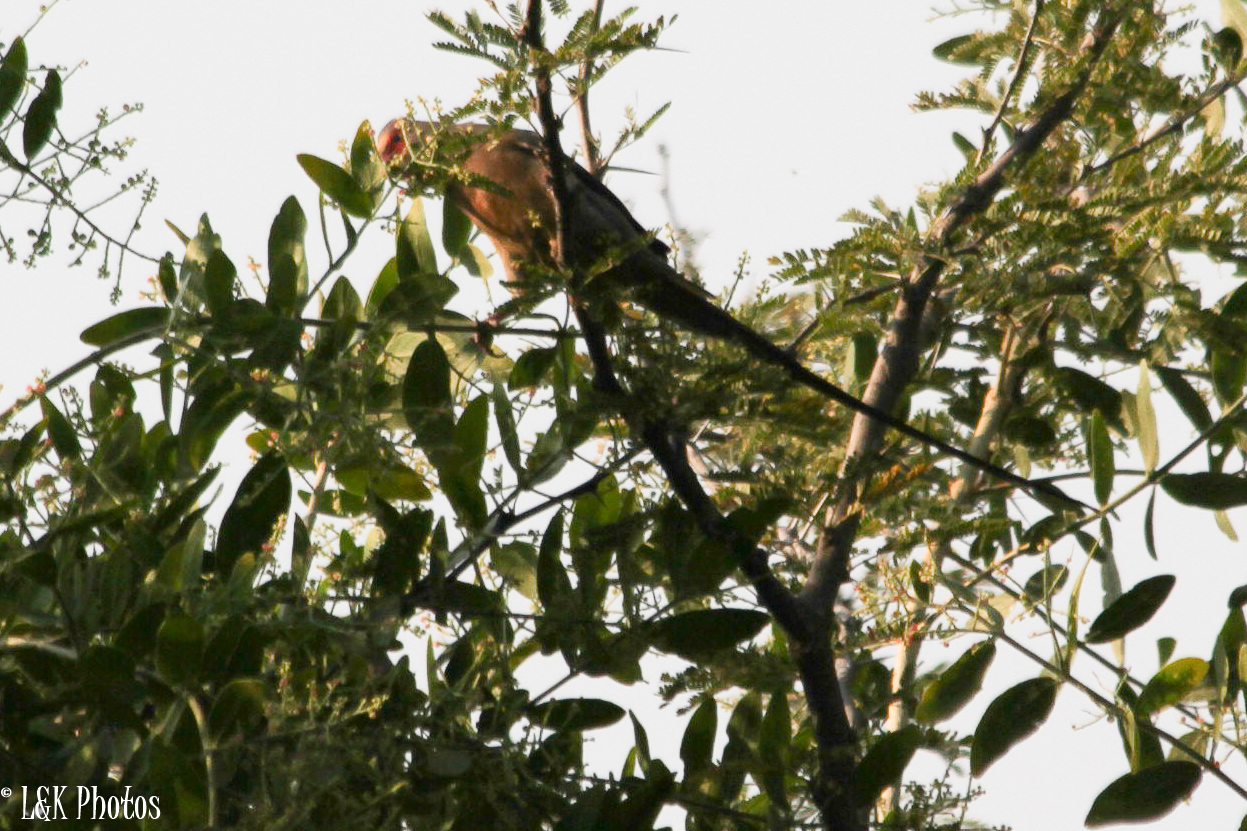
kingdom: Animalia
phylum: Chordata
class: Aves
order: Coliiformes
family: Coliidae
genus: Urocolius
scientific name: Urocolius indicus
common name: Red-faced mousebird
